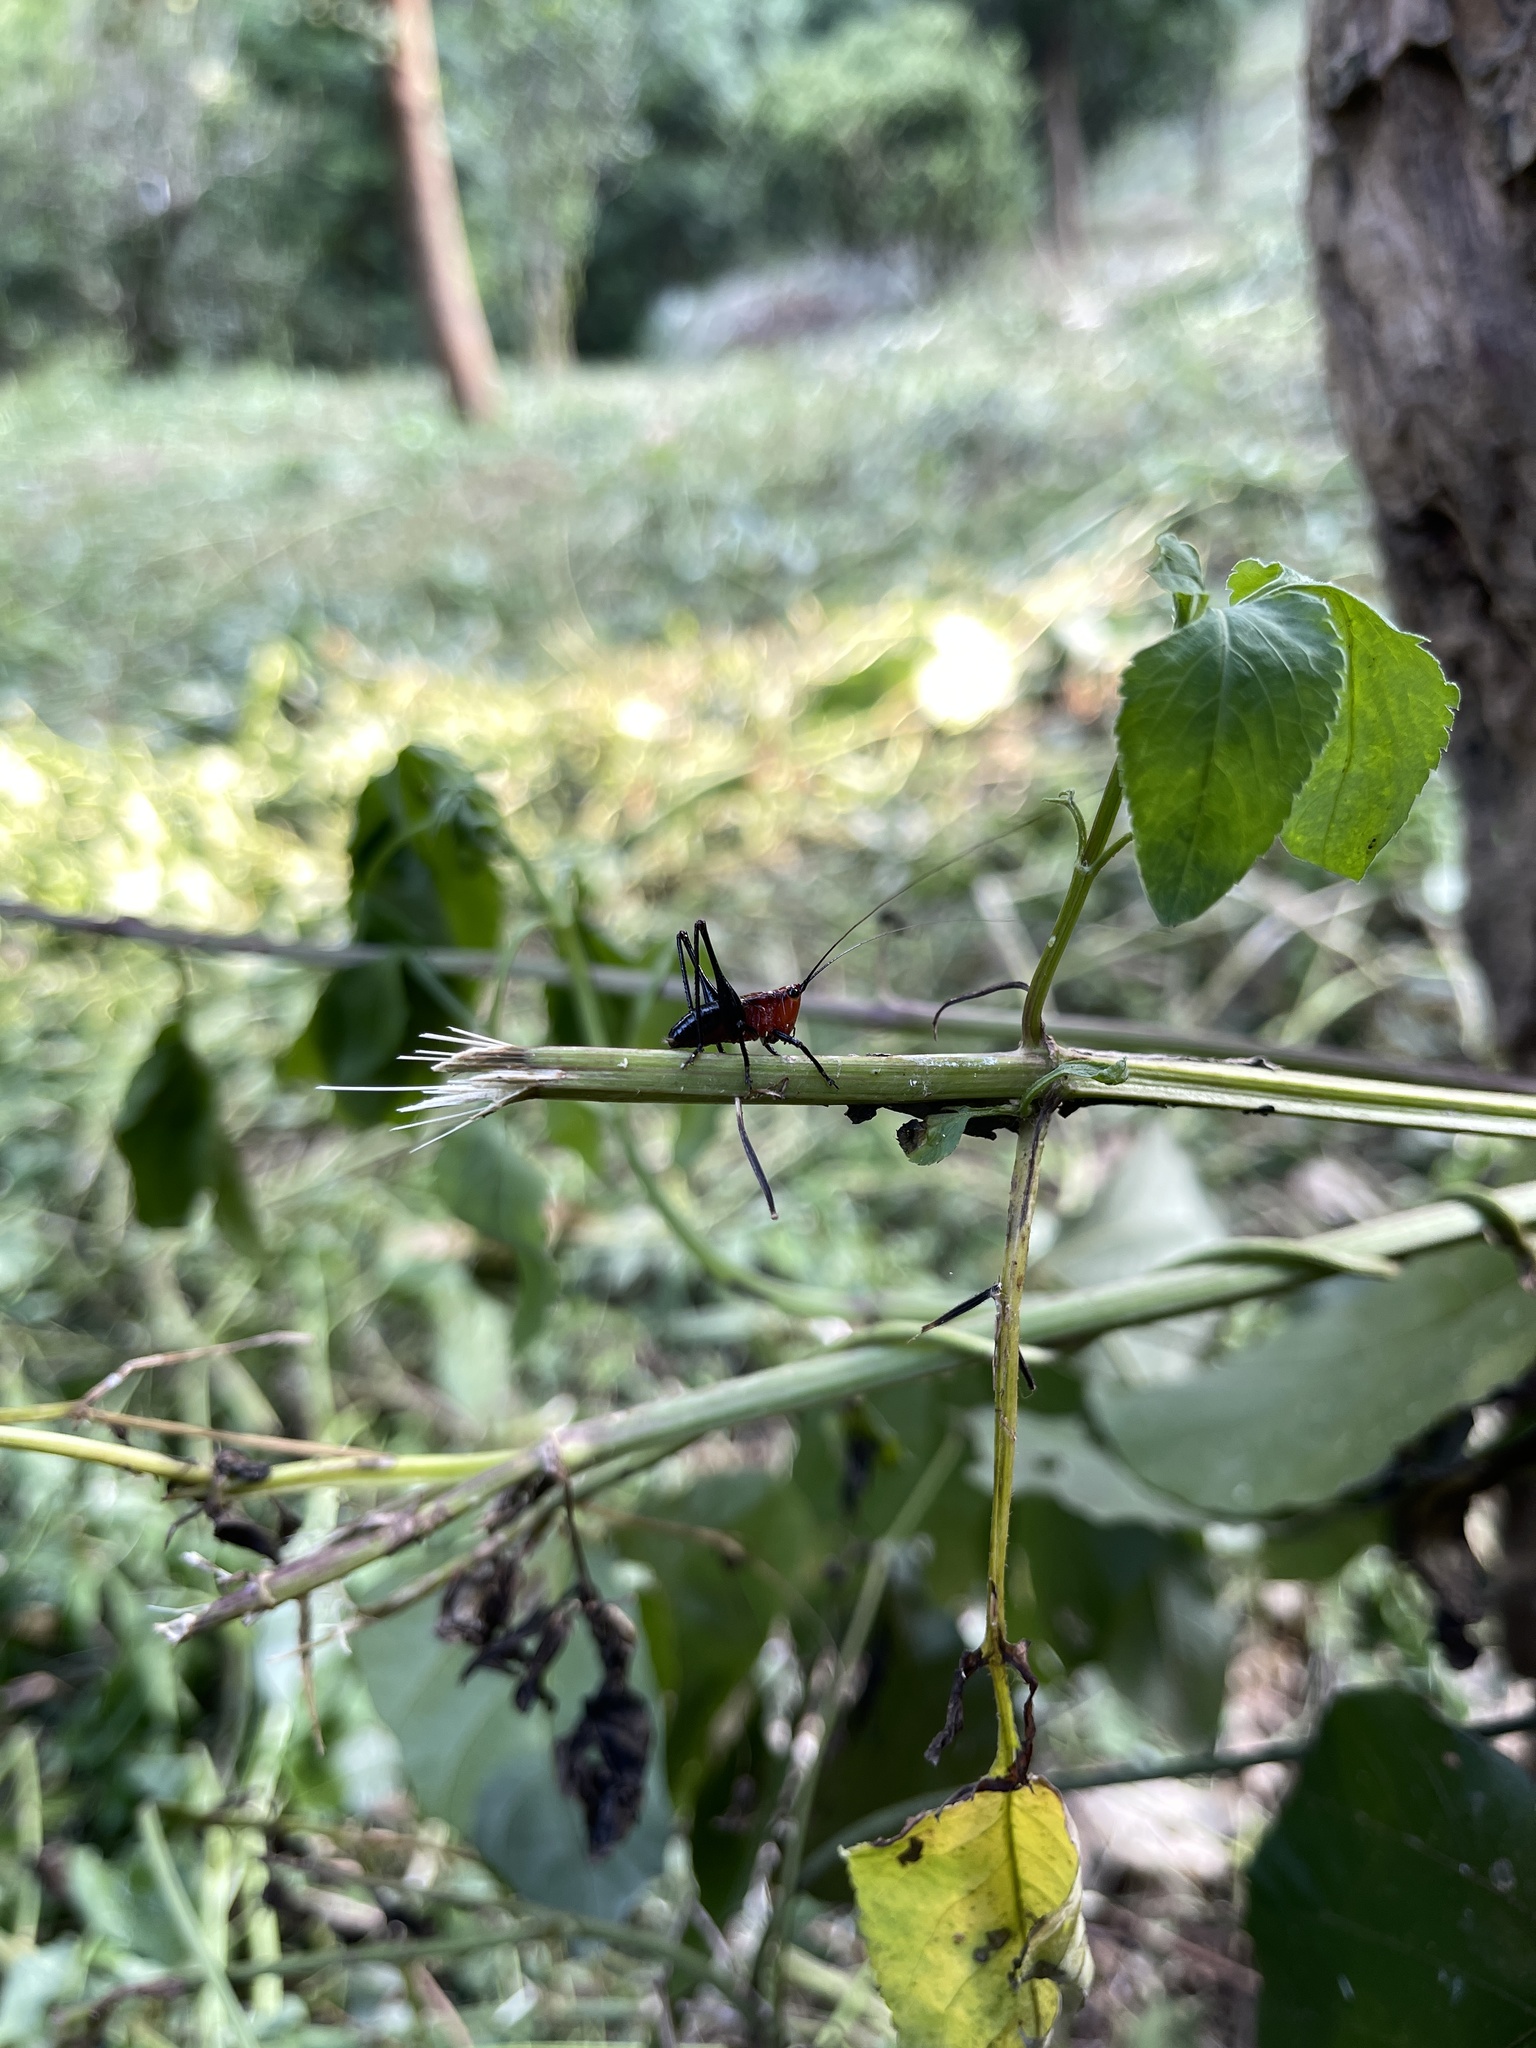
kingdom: Animalia
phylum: Arthropoda
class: Insecta
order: Orthoptera
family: Tettigoniidae
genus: Conocephalus
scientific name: Conocephalus melaenus
